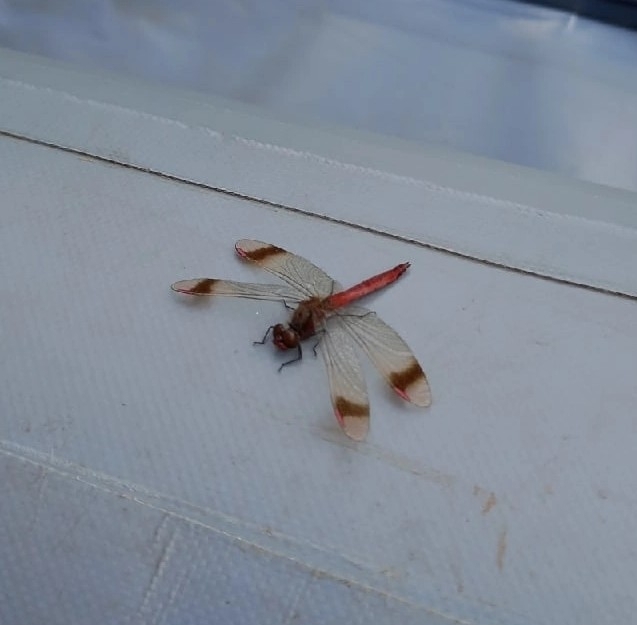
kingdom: Animalia
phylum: Arthropoda
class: Insecta
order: Odonata
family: Libellulidae
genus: Sympetrum
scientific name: Sympetrum pedemontanum
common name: Banded darter
